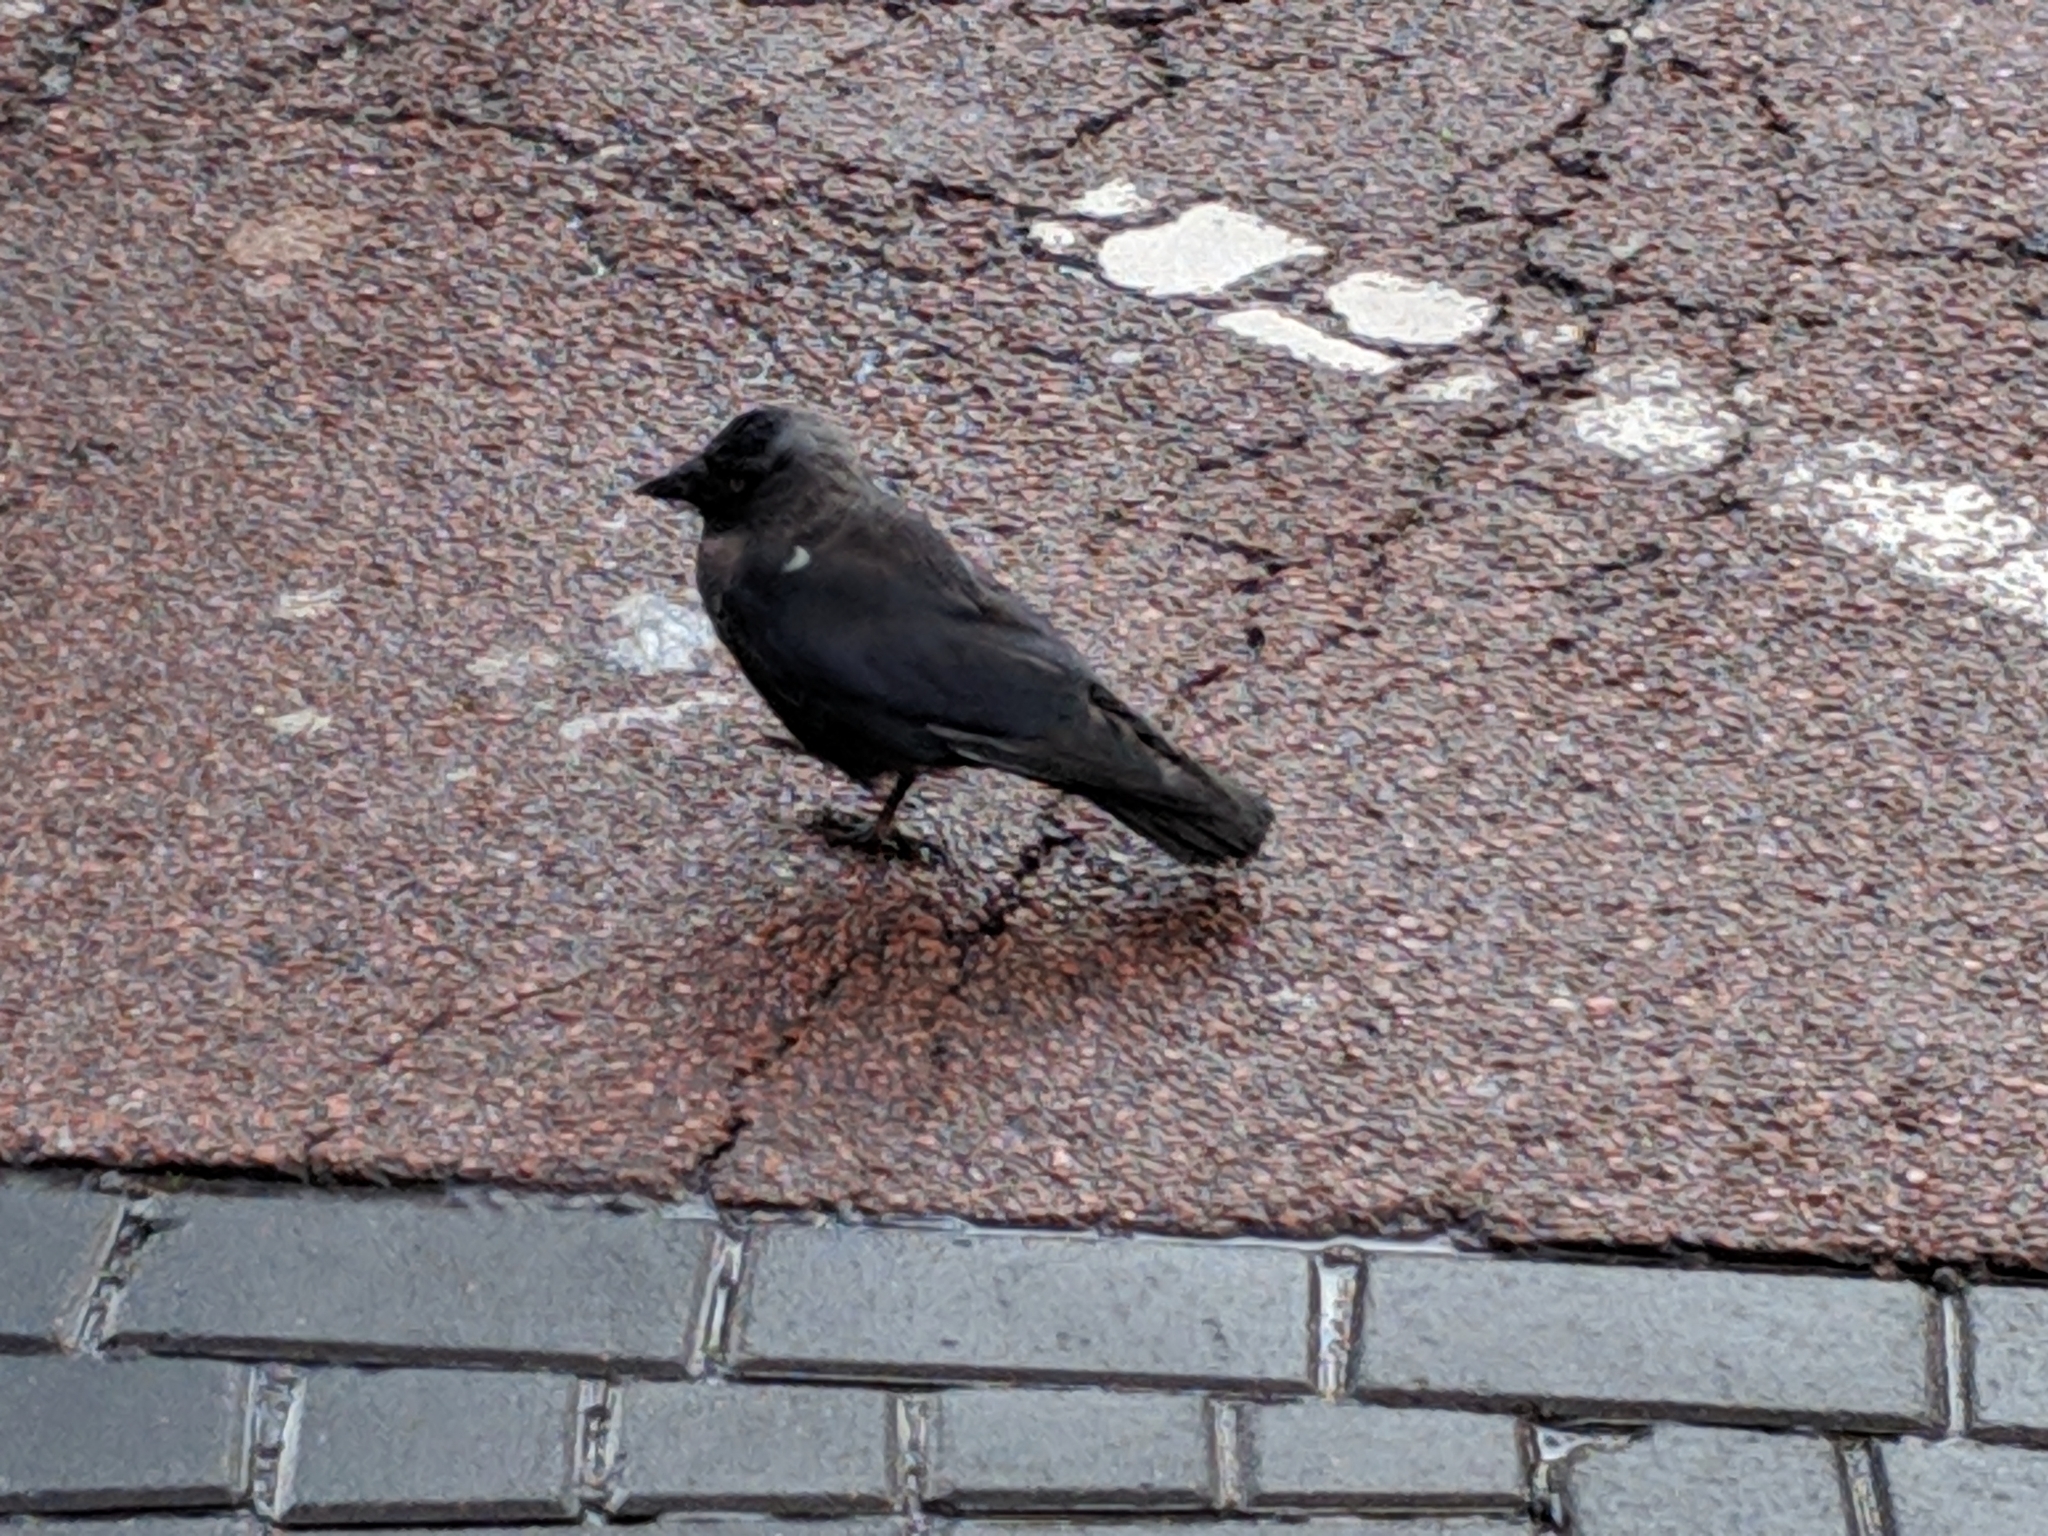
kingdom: Animalia
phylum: Chordata
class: Aves
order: Passeriformes
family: Corvidae
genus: Coloeus
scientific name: Coloeus monedula
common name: Western jackdaw
